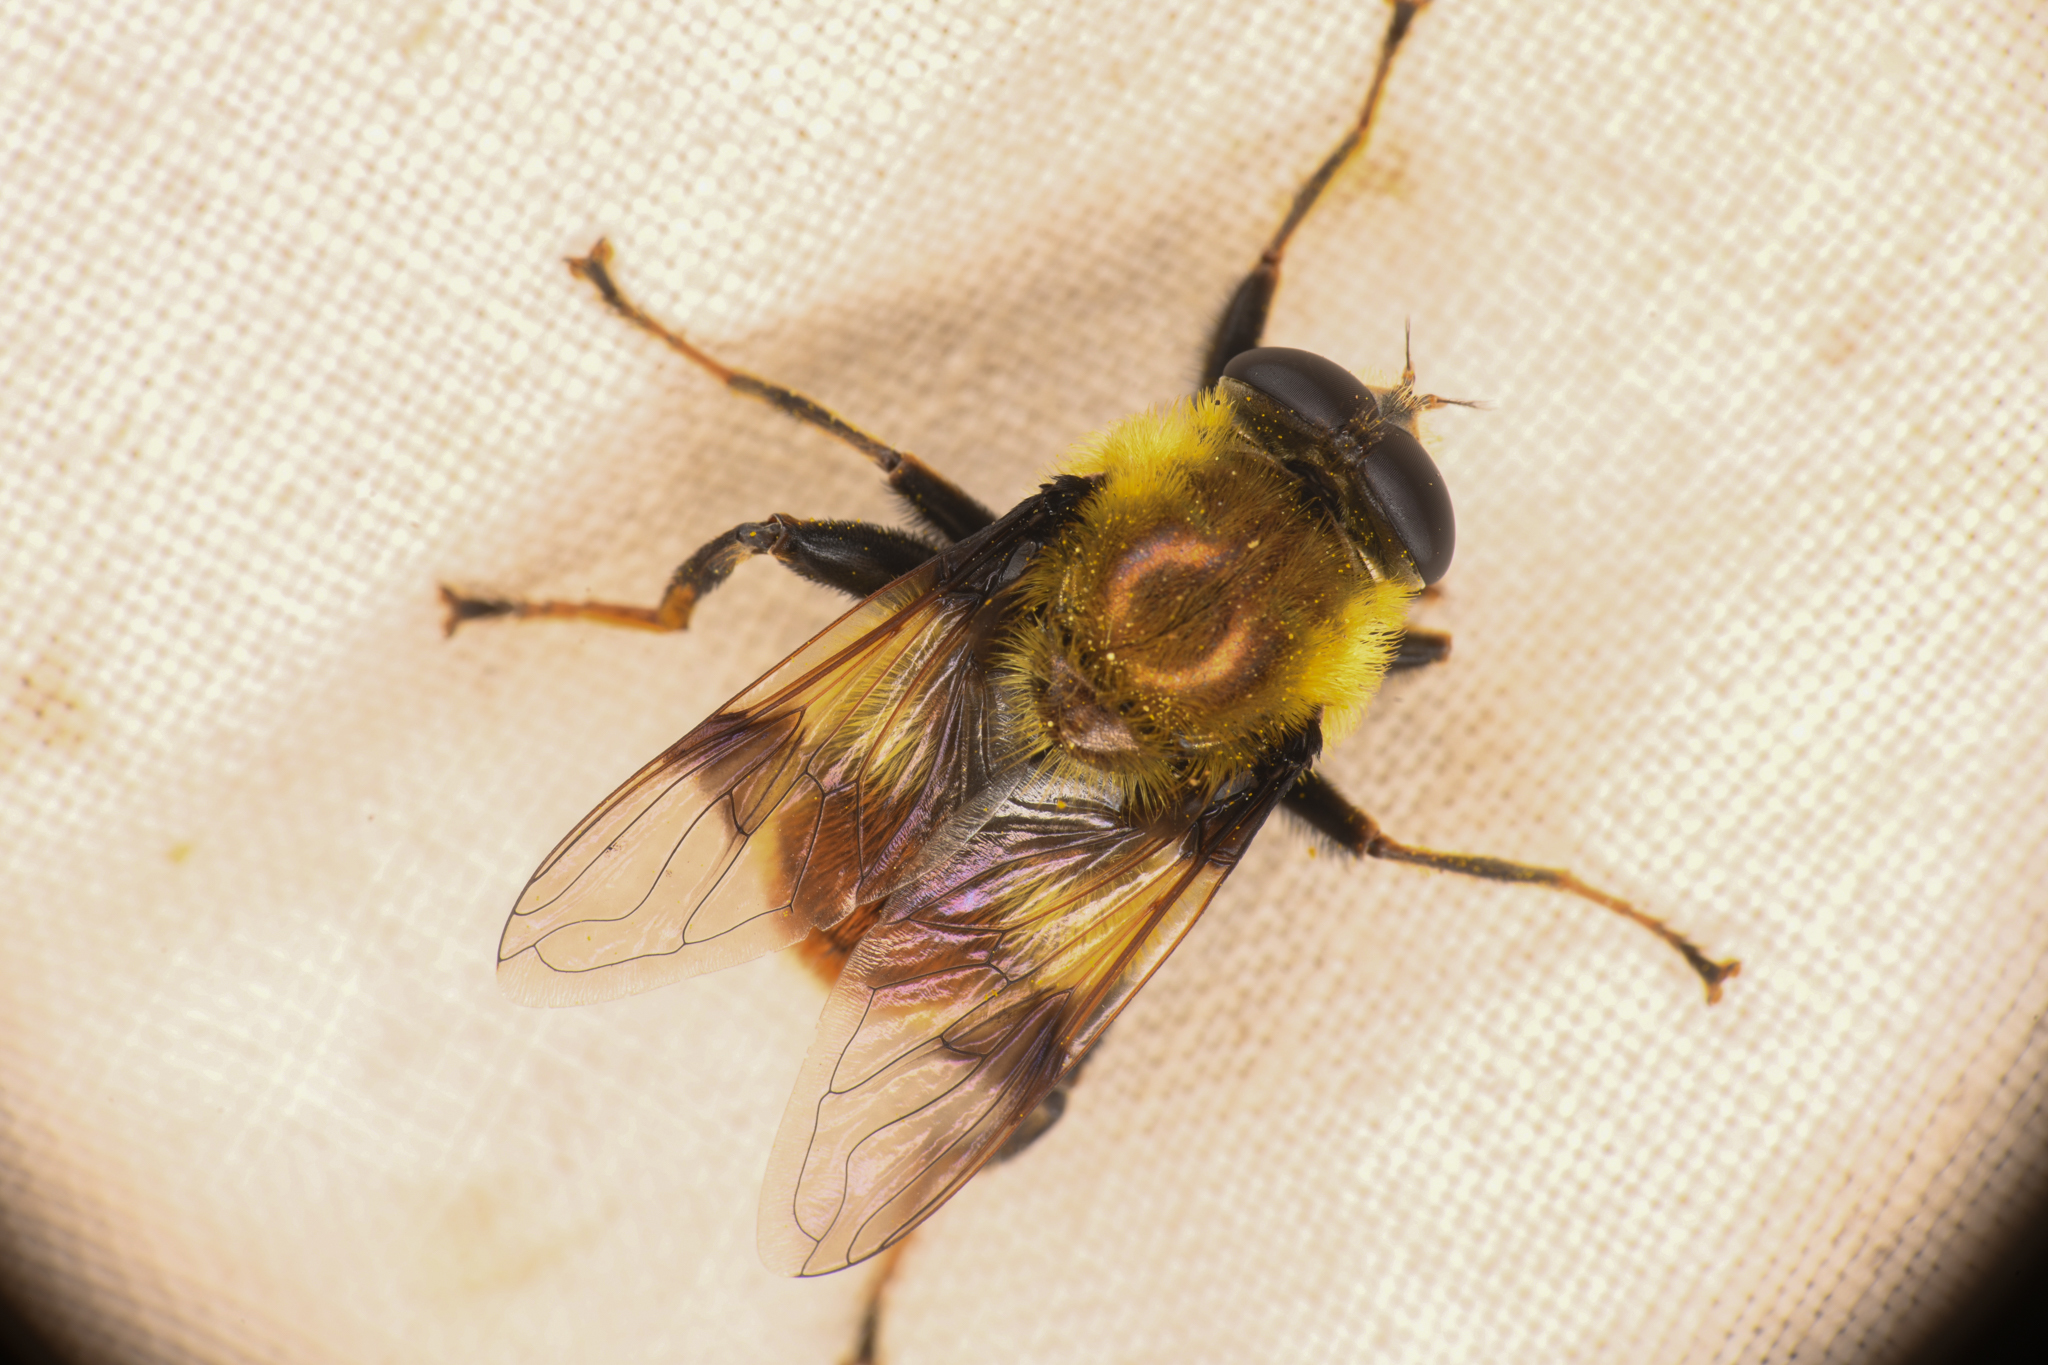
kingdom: Animalia
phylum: Arthropoda
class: Insecta
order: Diptera
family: Syrphidae
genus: Sericomyia
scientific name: Sericomyia flagrans
